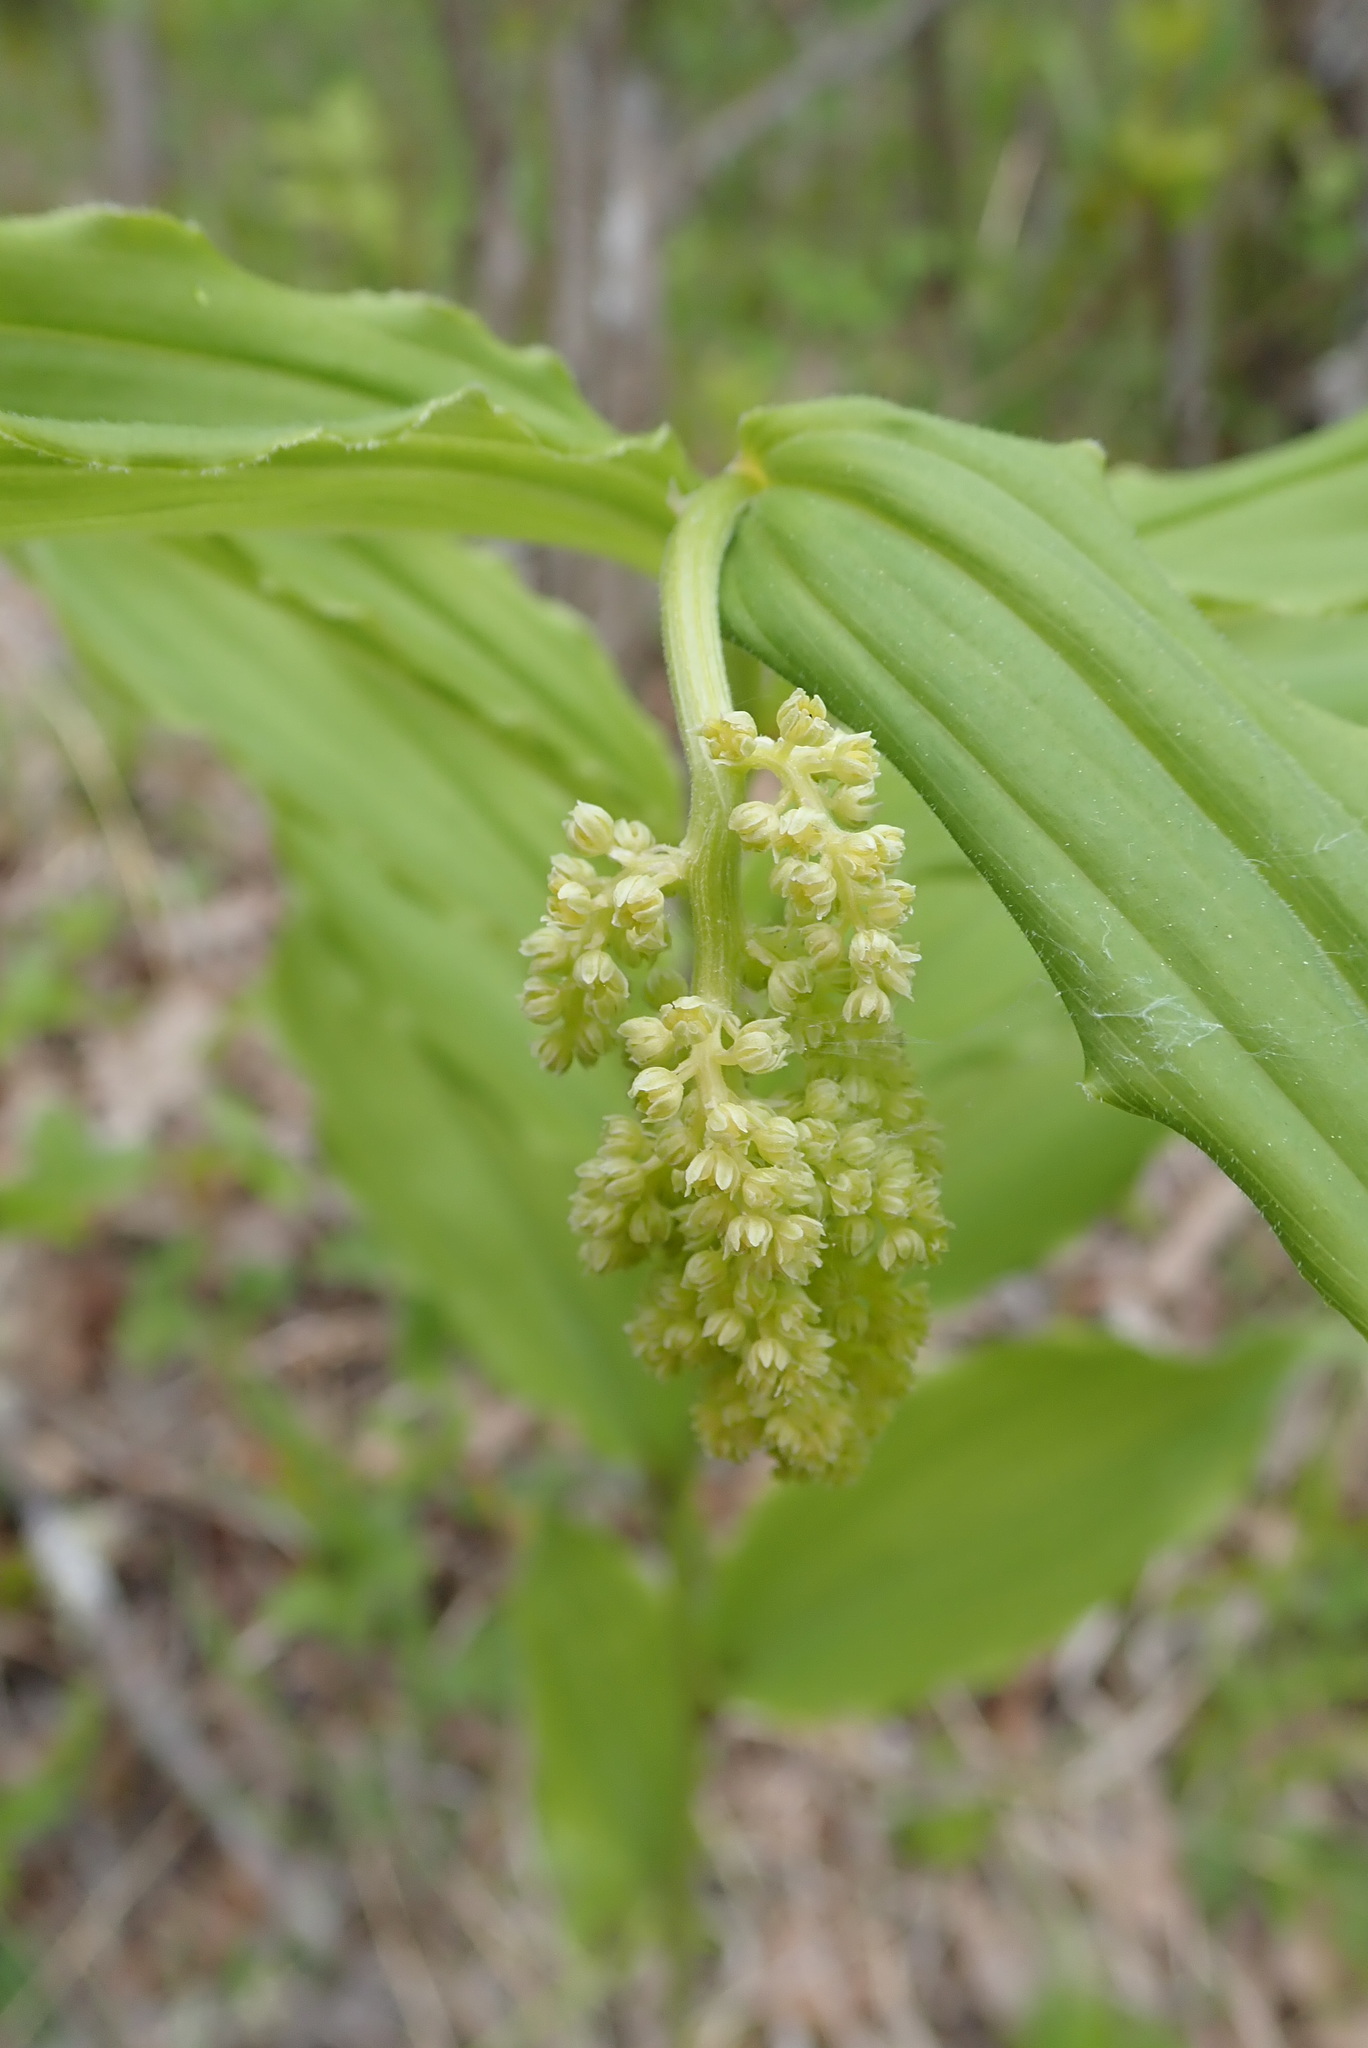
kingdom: Plantae
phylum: Tracheophyta
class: Liliopsida
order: Asparagales
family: Asparagaceae
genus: Maianthemum
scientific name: Maianthemum racemosum
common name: False spikenard
